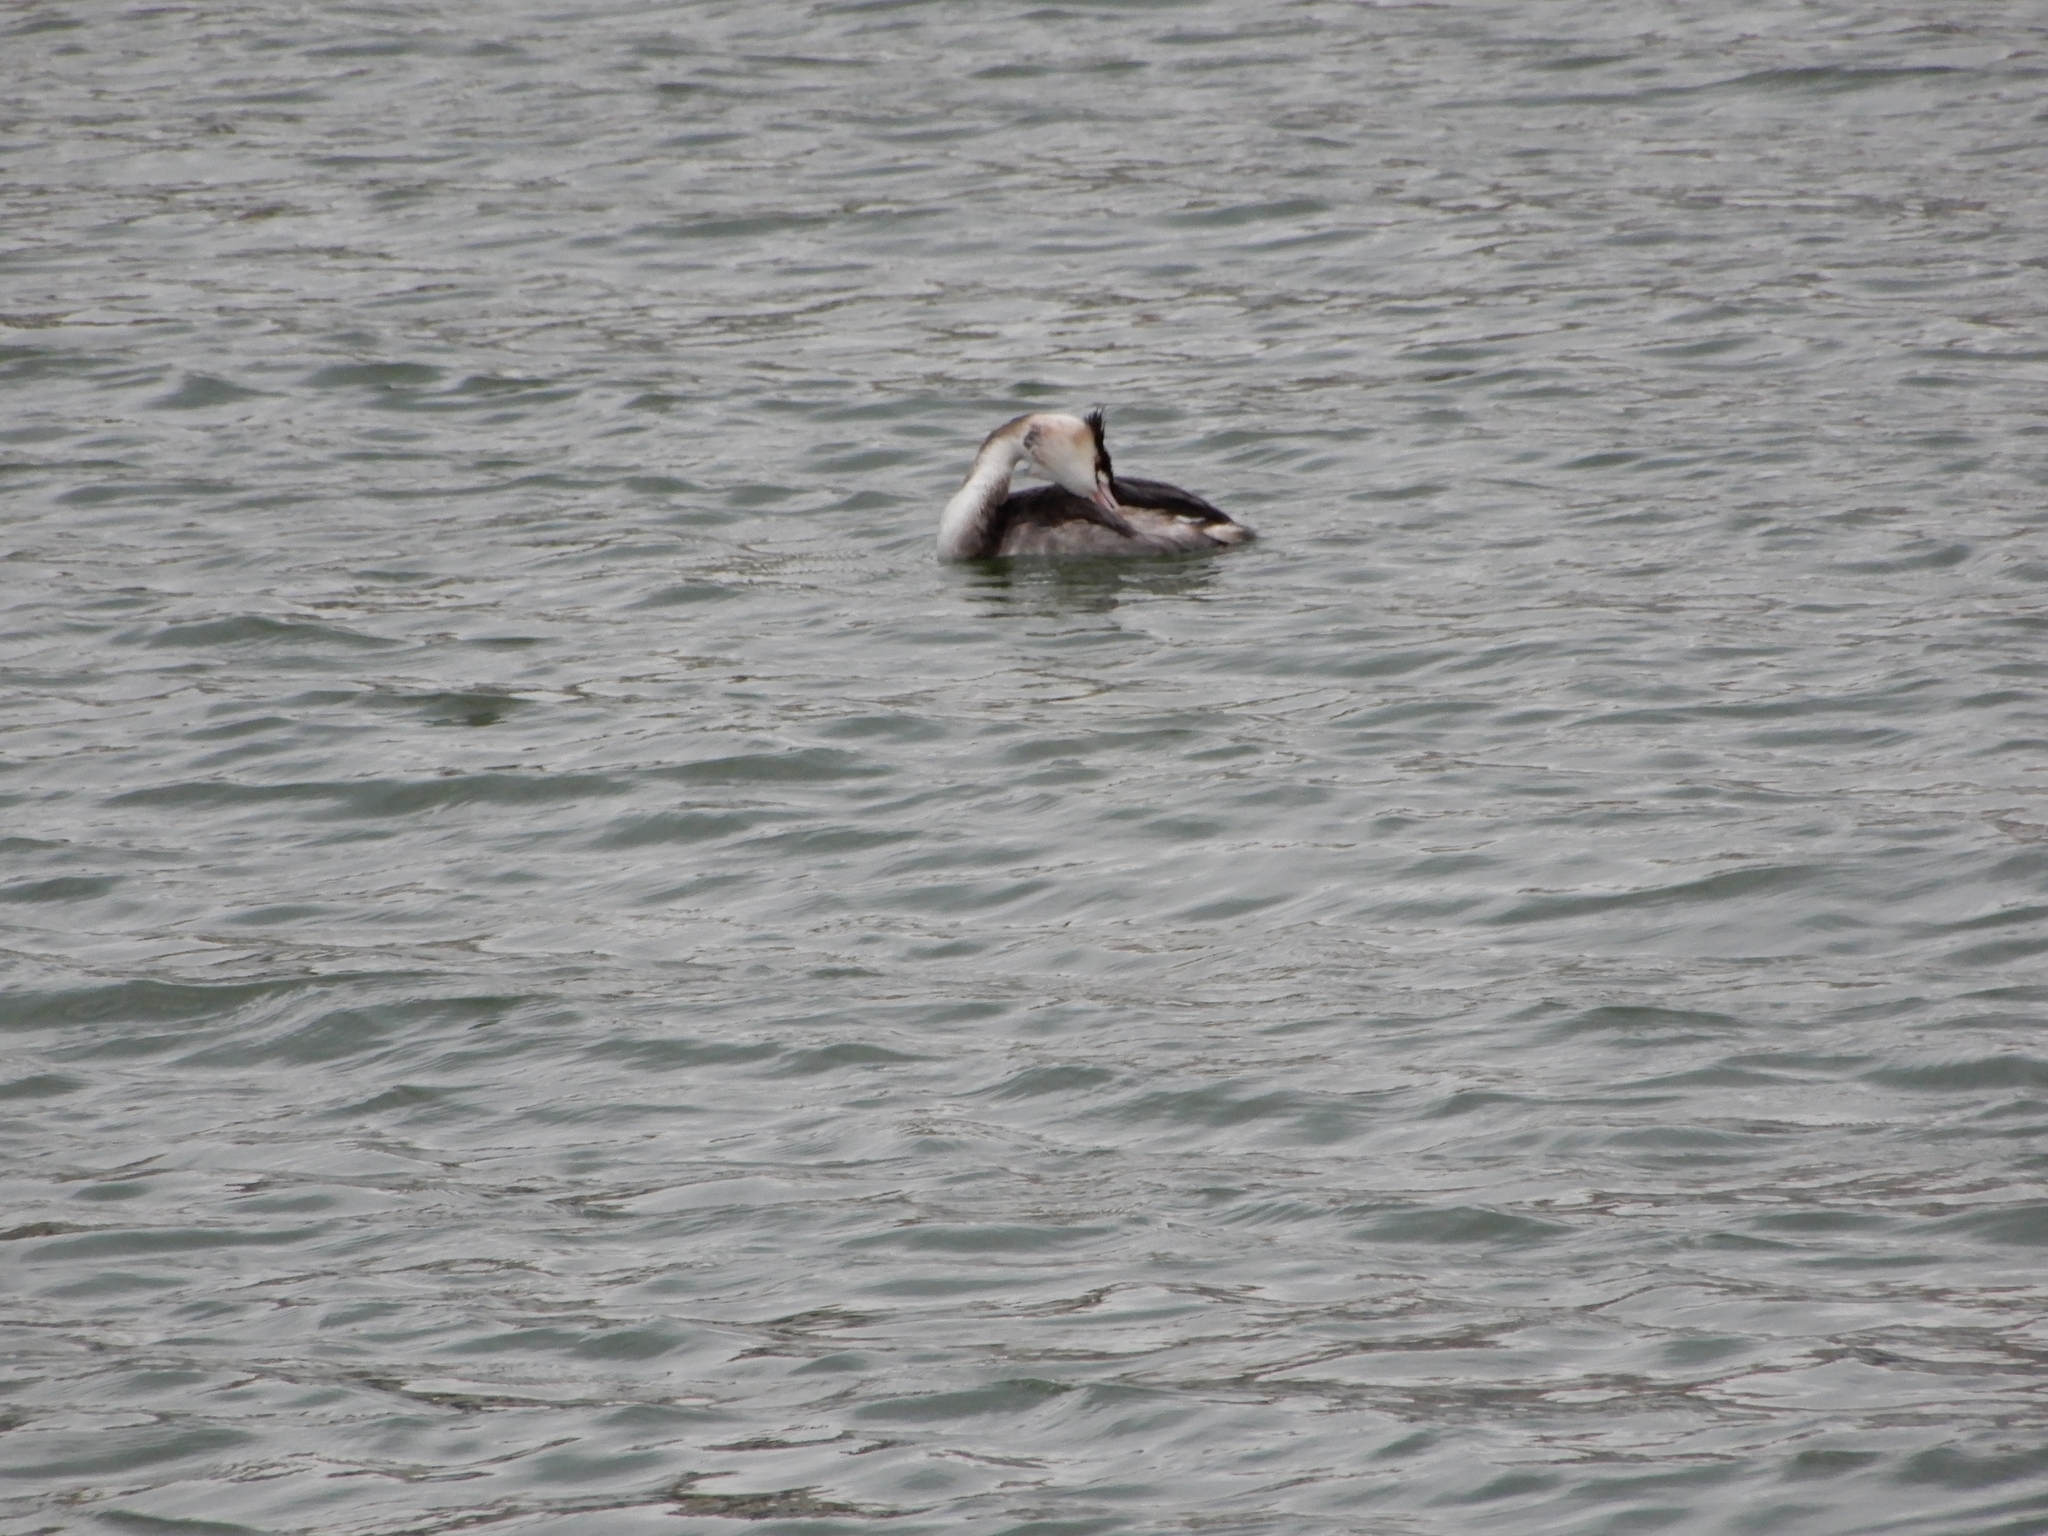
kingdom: Animalia
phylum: Chordata
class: Aves
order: Podicipediformes
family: Podicipedidae
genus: Podiceps
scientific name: Podiceps cristatus
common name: Great crested grebe
